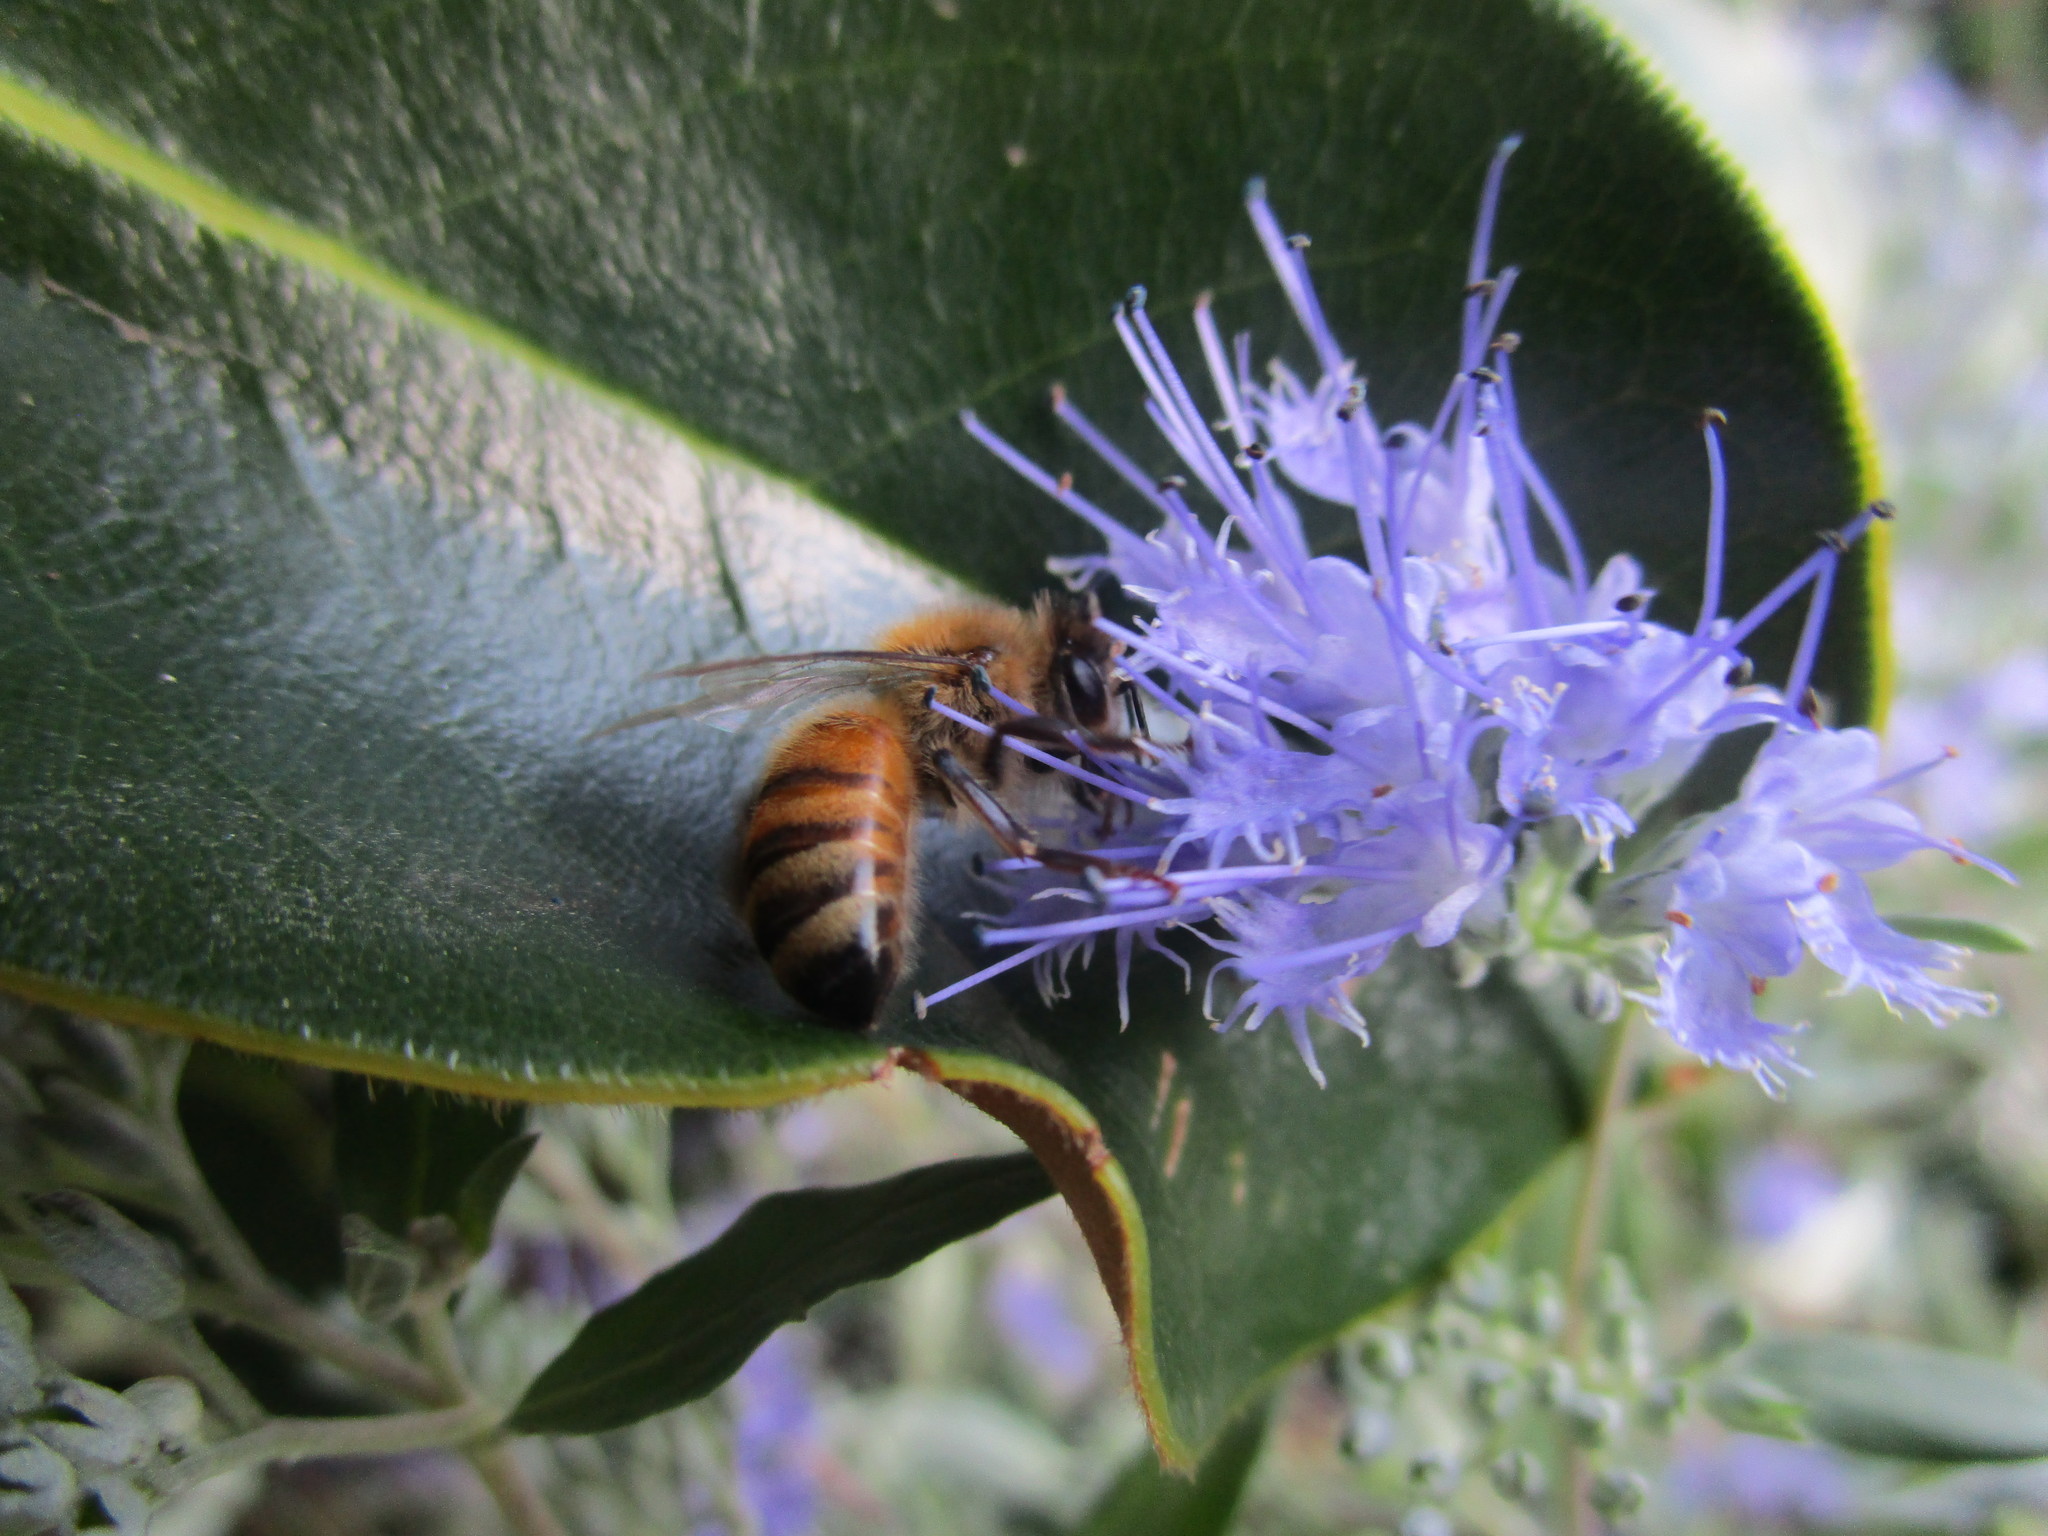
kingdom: Animalia
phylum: Arthropoda
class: Insecta
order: Hymenoptera
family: Apidae
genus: Apis
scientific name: Apis mellifera
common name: Honey bee
